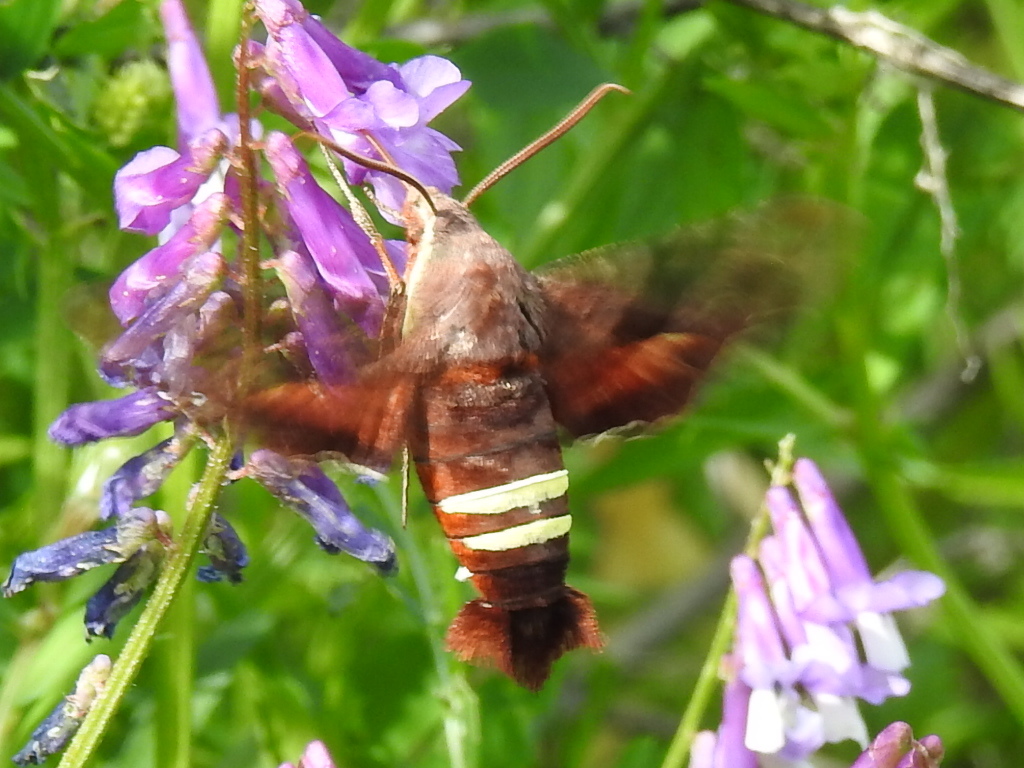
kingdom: Animalia
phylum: Arthropoda
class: Insecta
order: Lepidoptera
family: Sphingidae
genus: Amphion
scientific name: Amphion floridensis
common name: Nessus sphinx
